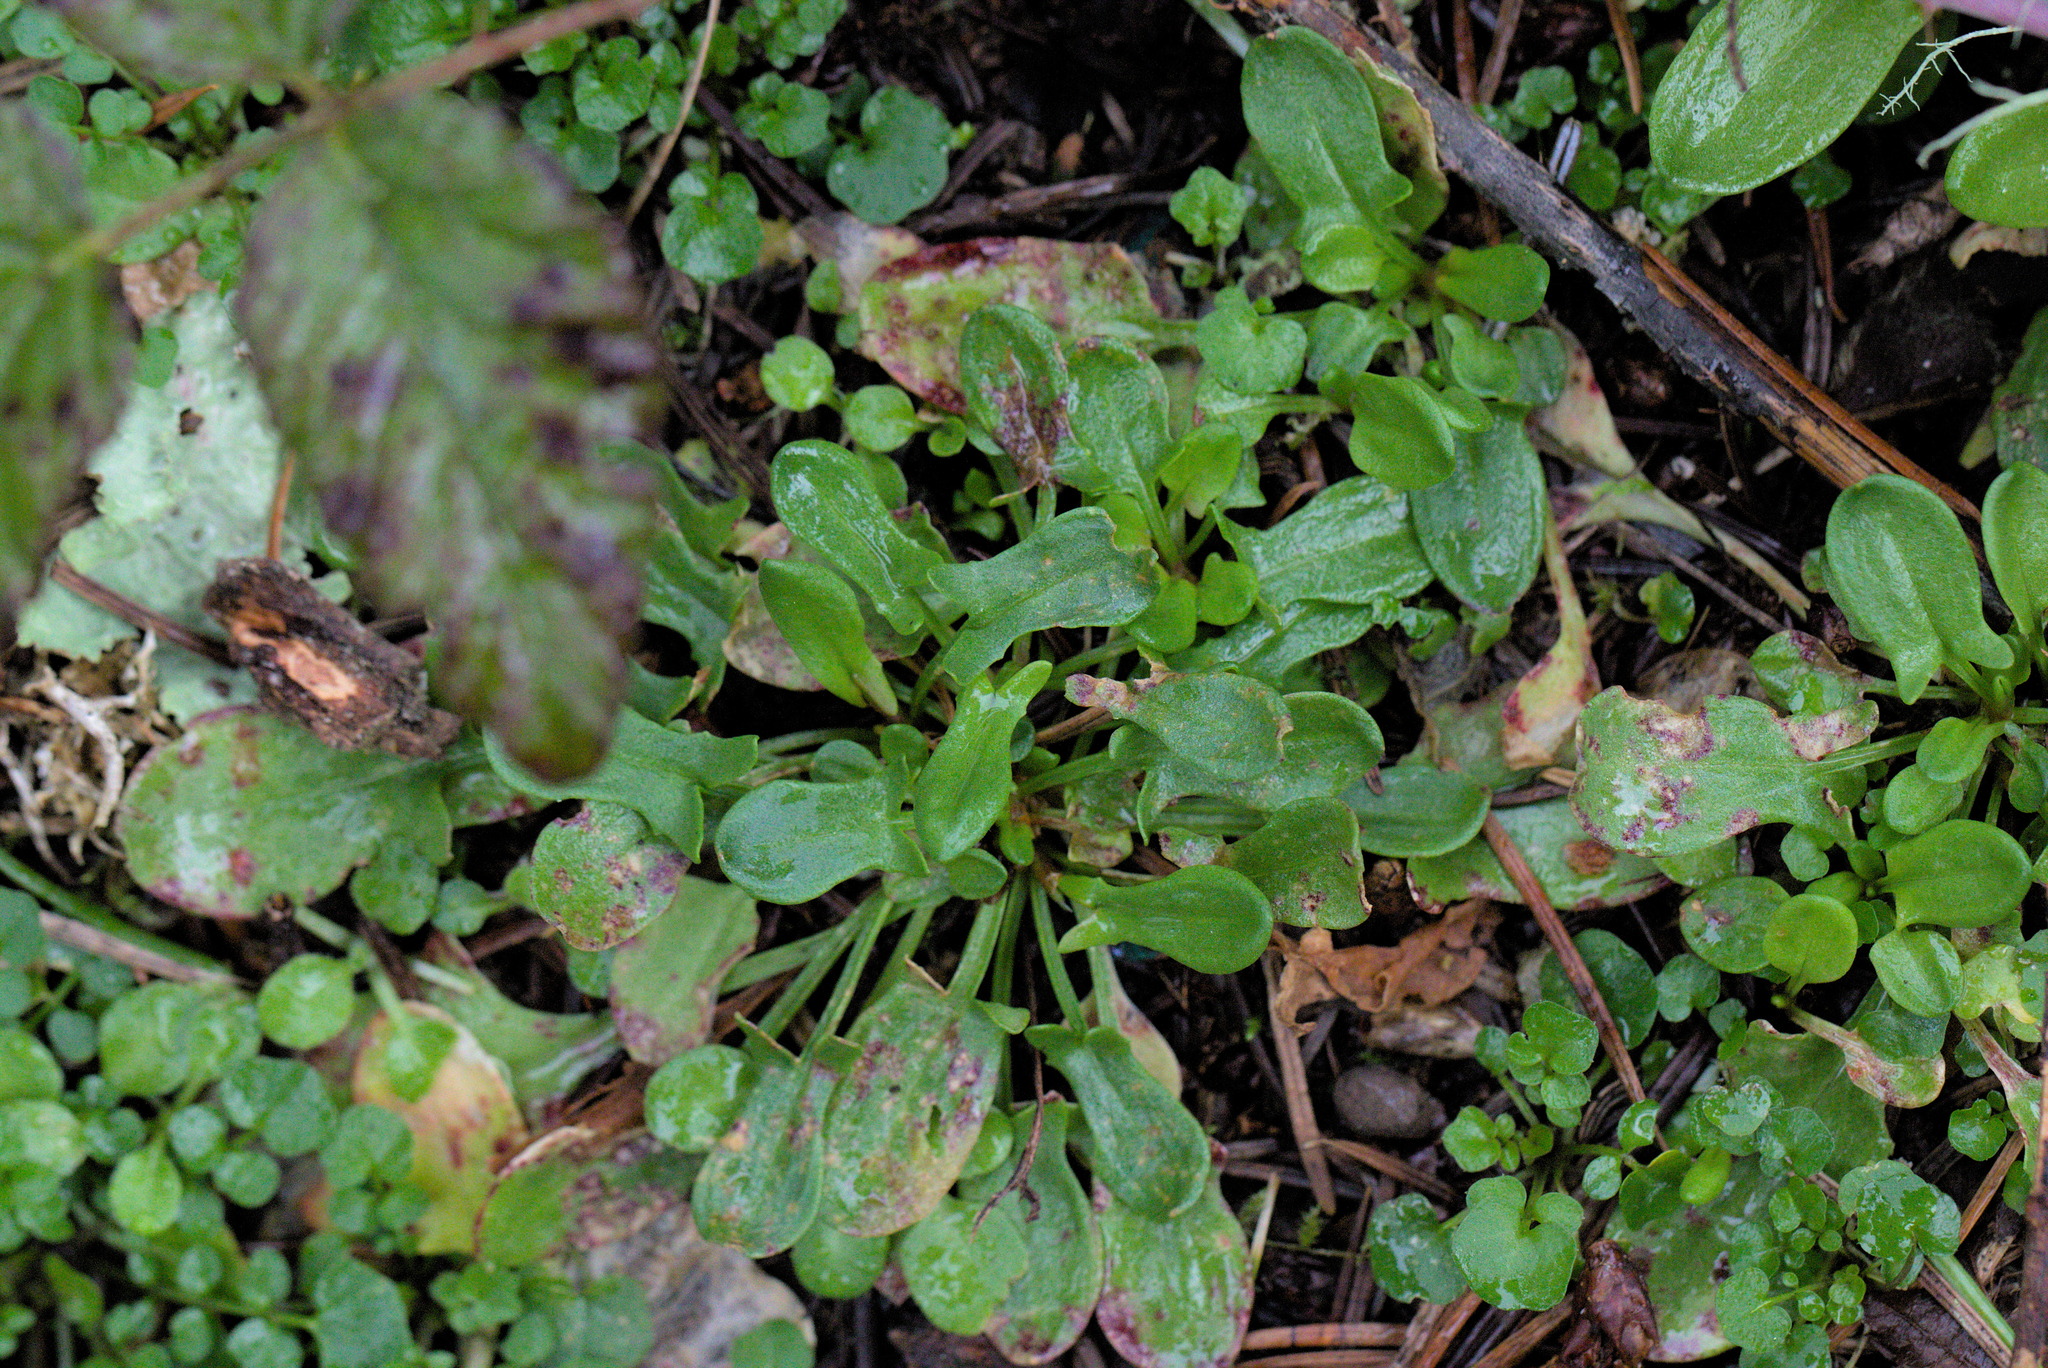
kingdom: Plantae
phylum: Tracheophyta
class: Magnoliopsida
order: Caryophyllales
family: Polygonaceae
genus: Rumex
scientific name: Rumex acetosella
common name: Common sheep sorrel
